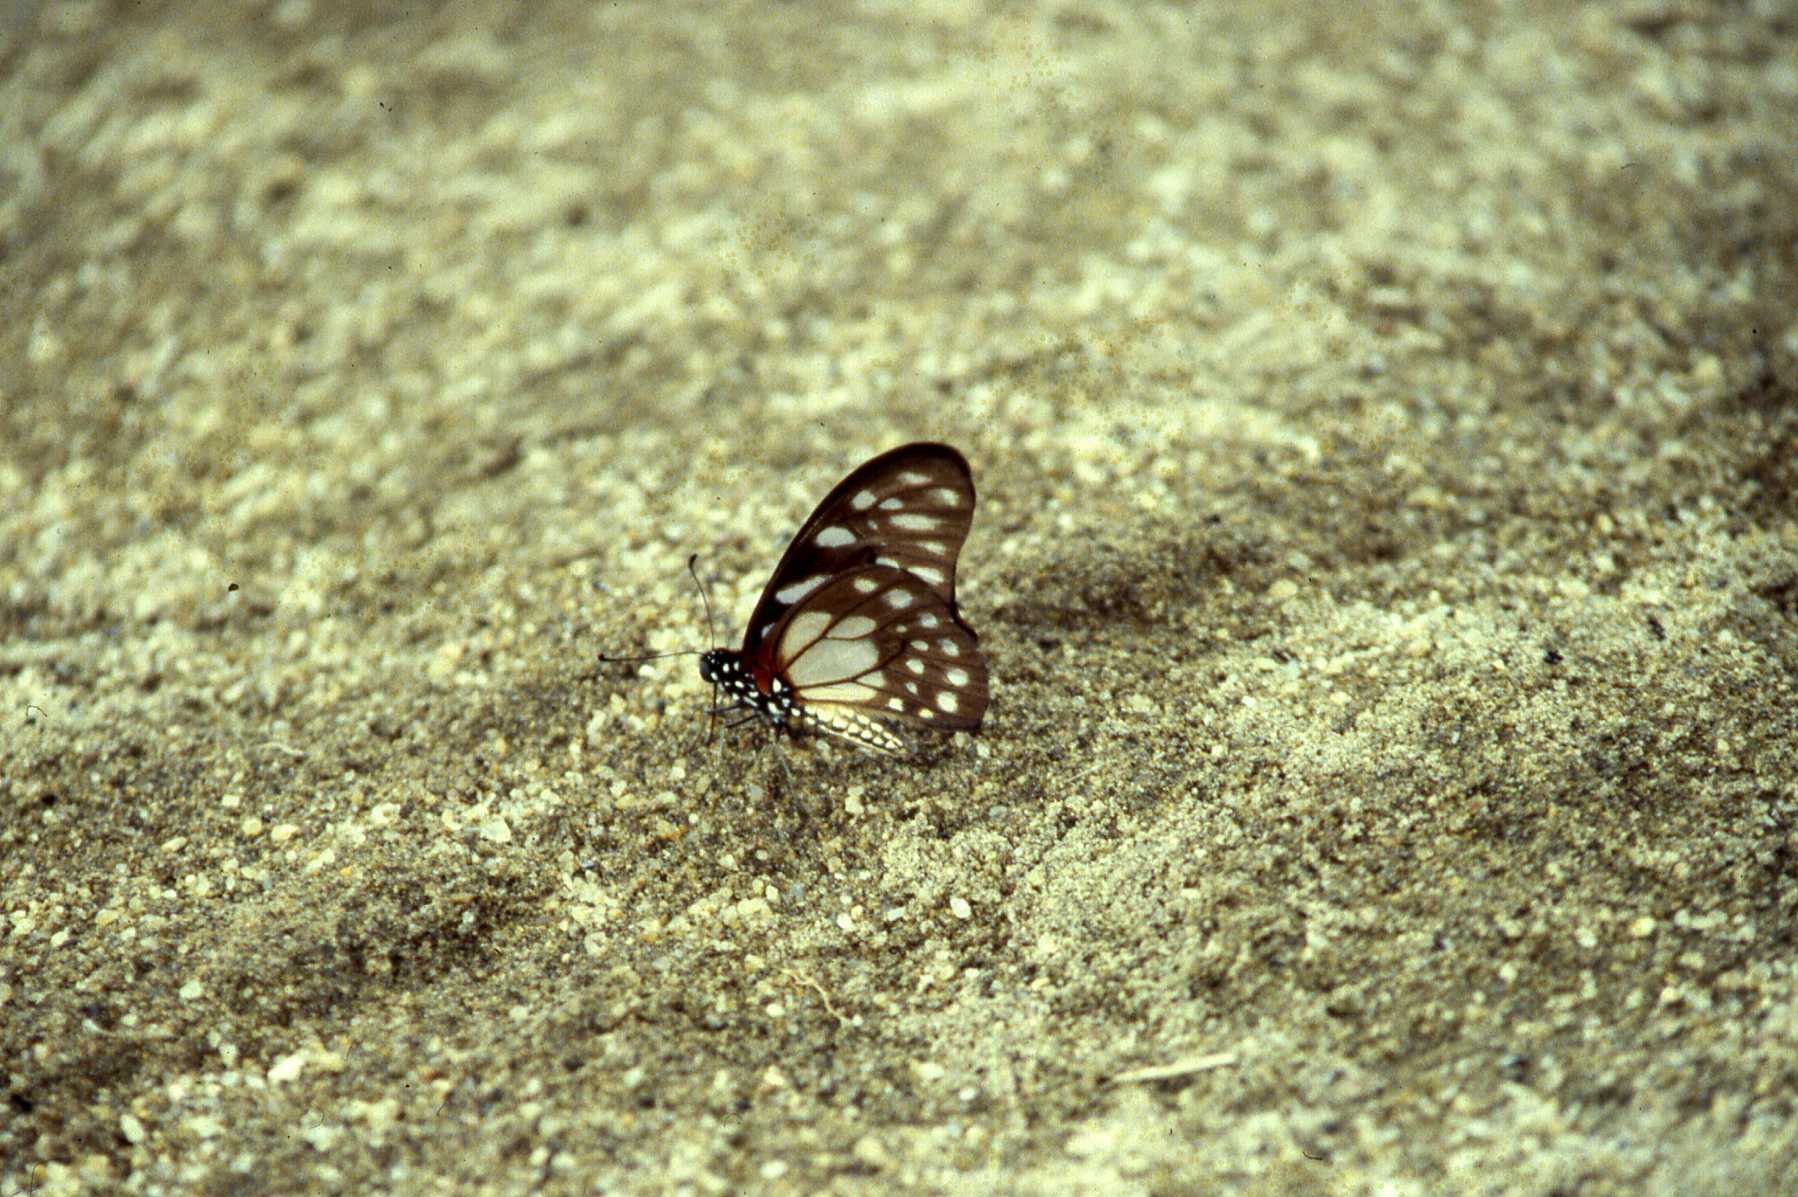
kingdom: Animalia
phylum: Arthropoda
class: Insecta
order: Lepidoptera
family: Papilionidae
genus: Graphium
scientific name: Graphium leonidas
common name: Common graphium
